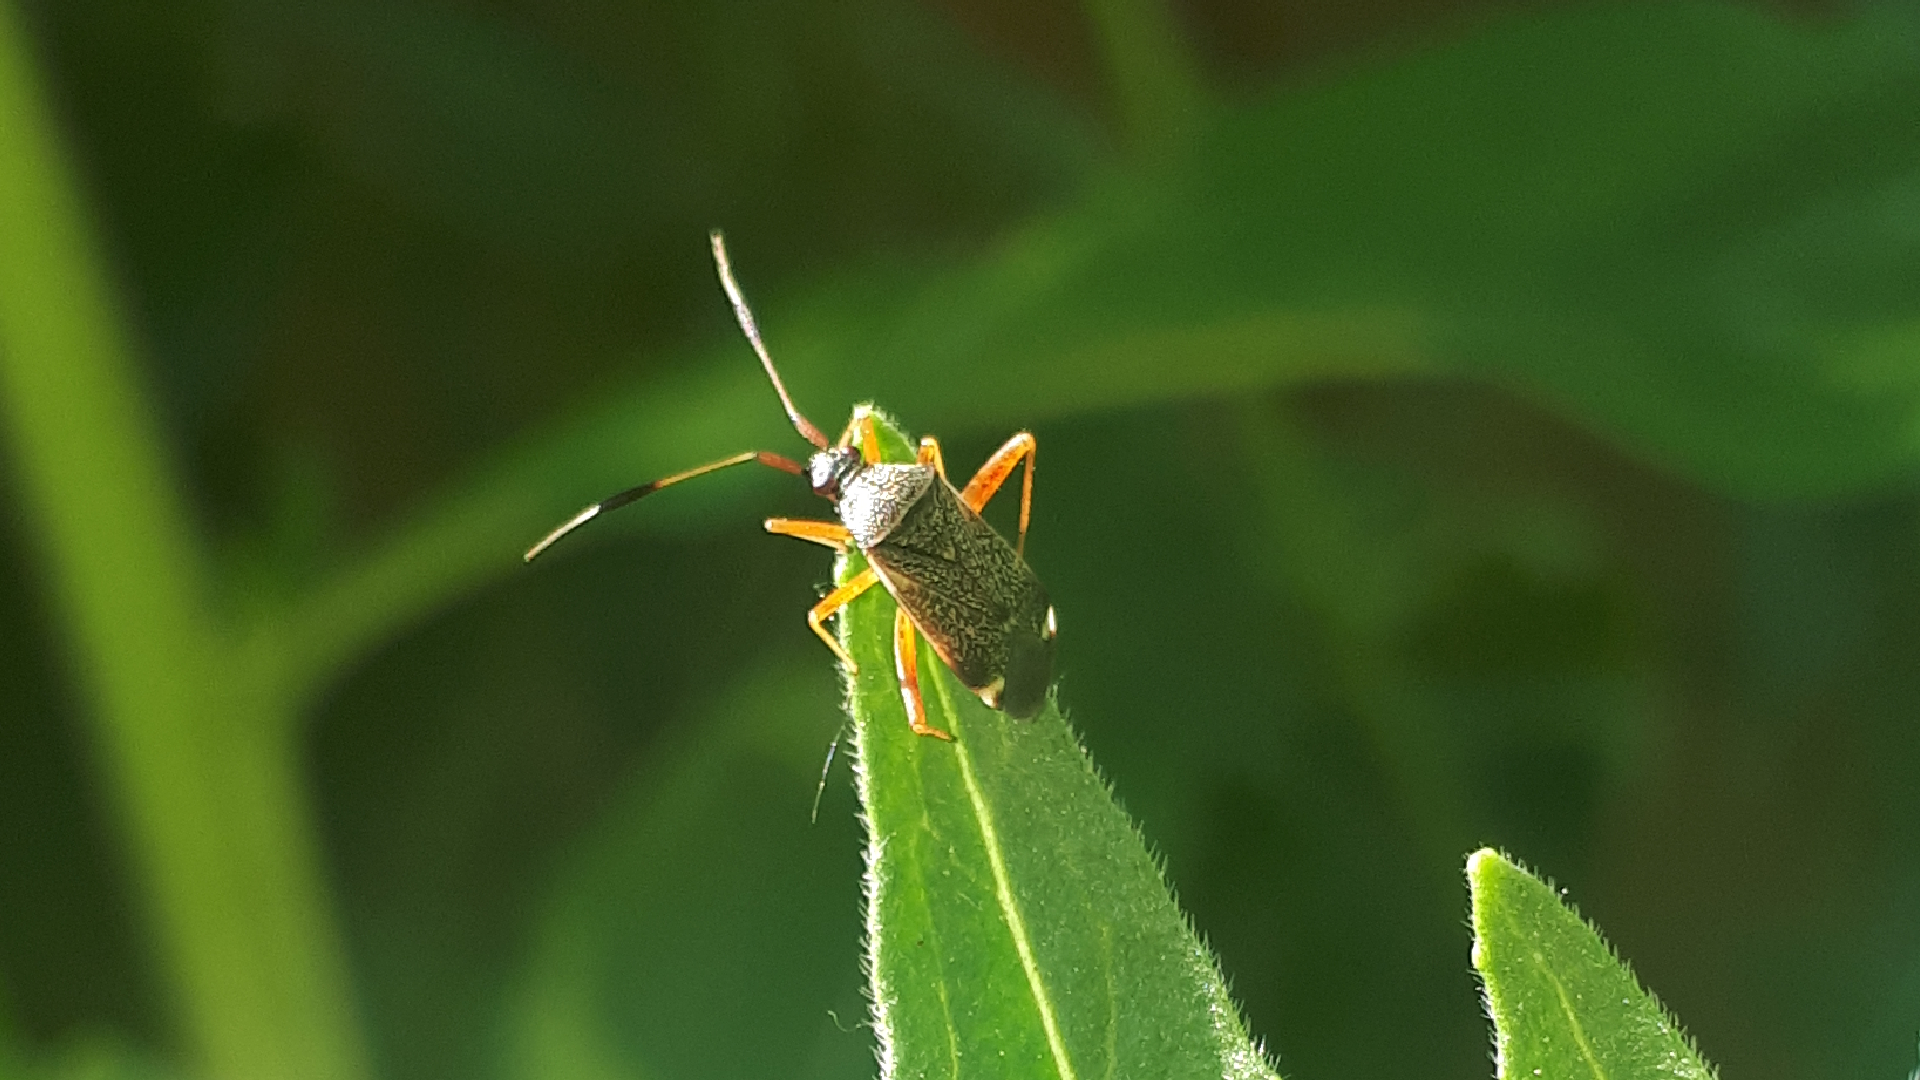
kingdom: Animalia
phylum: Arthropoda
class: Insecta
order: Hemiptera
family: Miridae
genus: Closterotomus
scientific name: Closterotomus biclavatus
